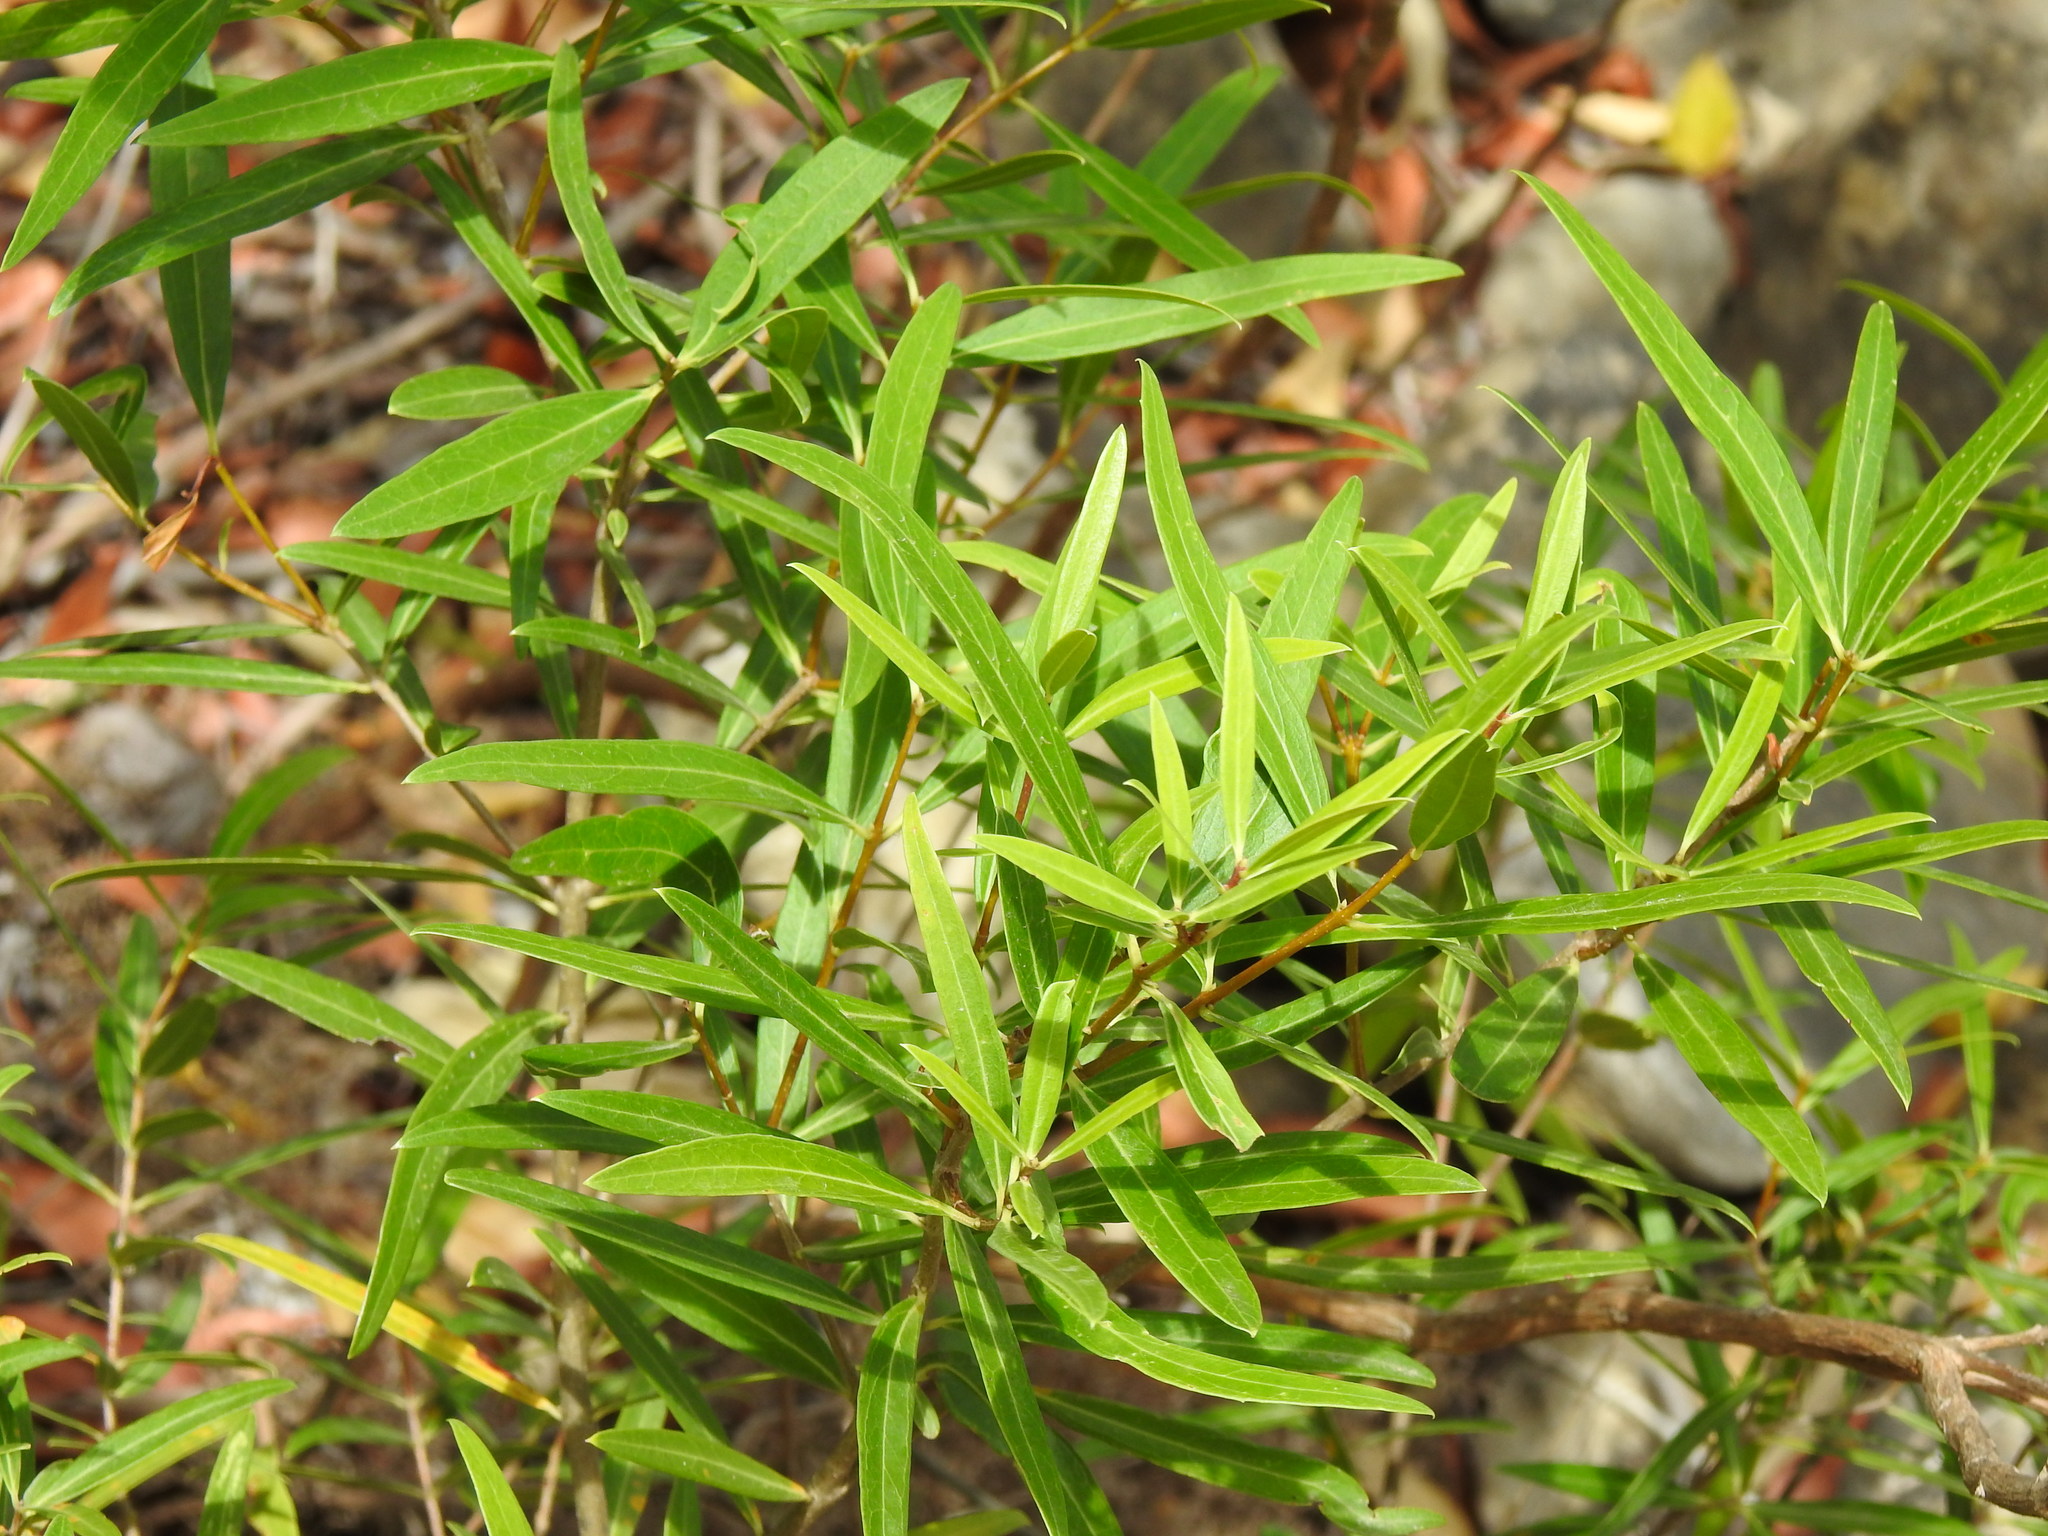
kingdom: Plantae
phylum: Tracheophyta
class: Magnoliopsida
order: Lamiales
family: Oleaceae
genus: Phillyrea
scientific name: Phillyrea angustifolia
